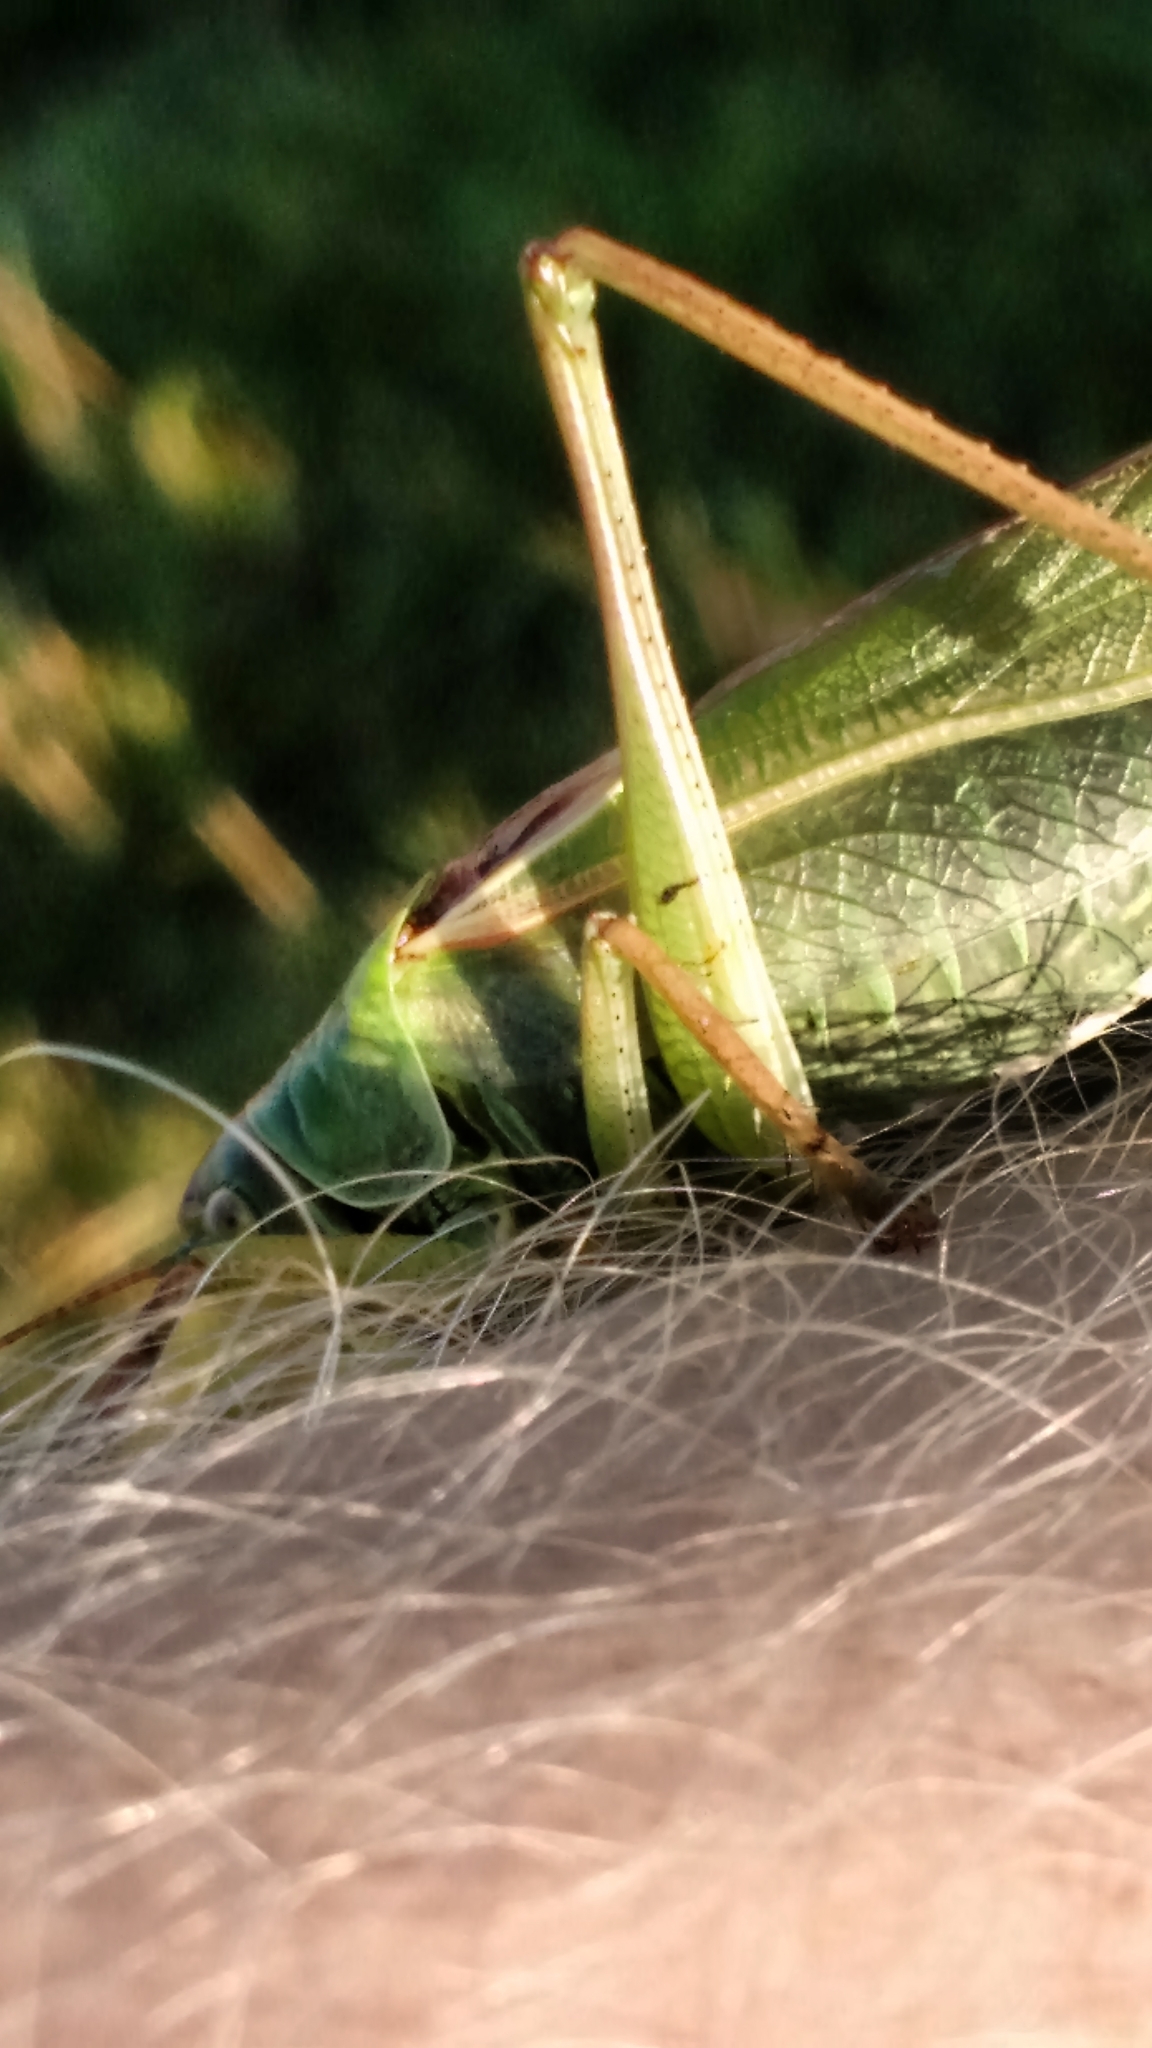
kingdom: Animalia
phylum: Arthropoda
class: Insecta
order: Orthoptera
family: Tettigoniidae
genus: Tettigonia
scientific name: Tettigonia viridissima
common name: Great green bush-cricket
